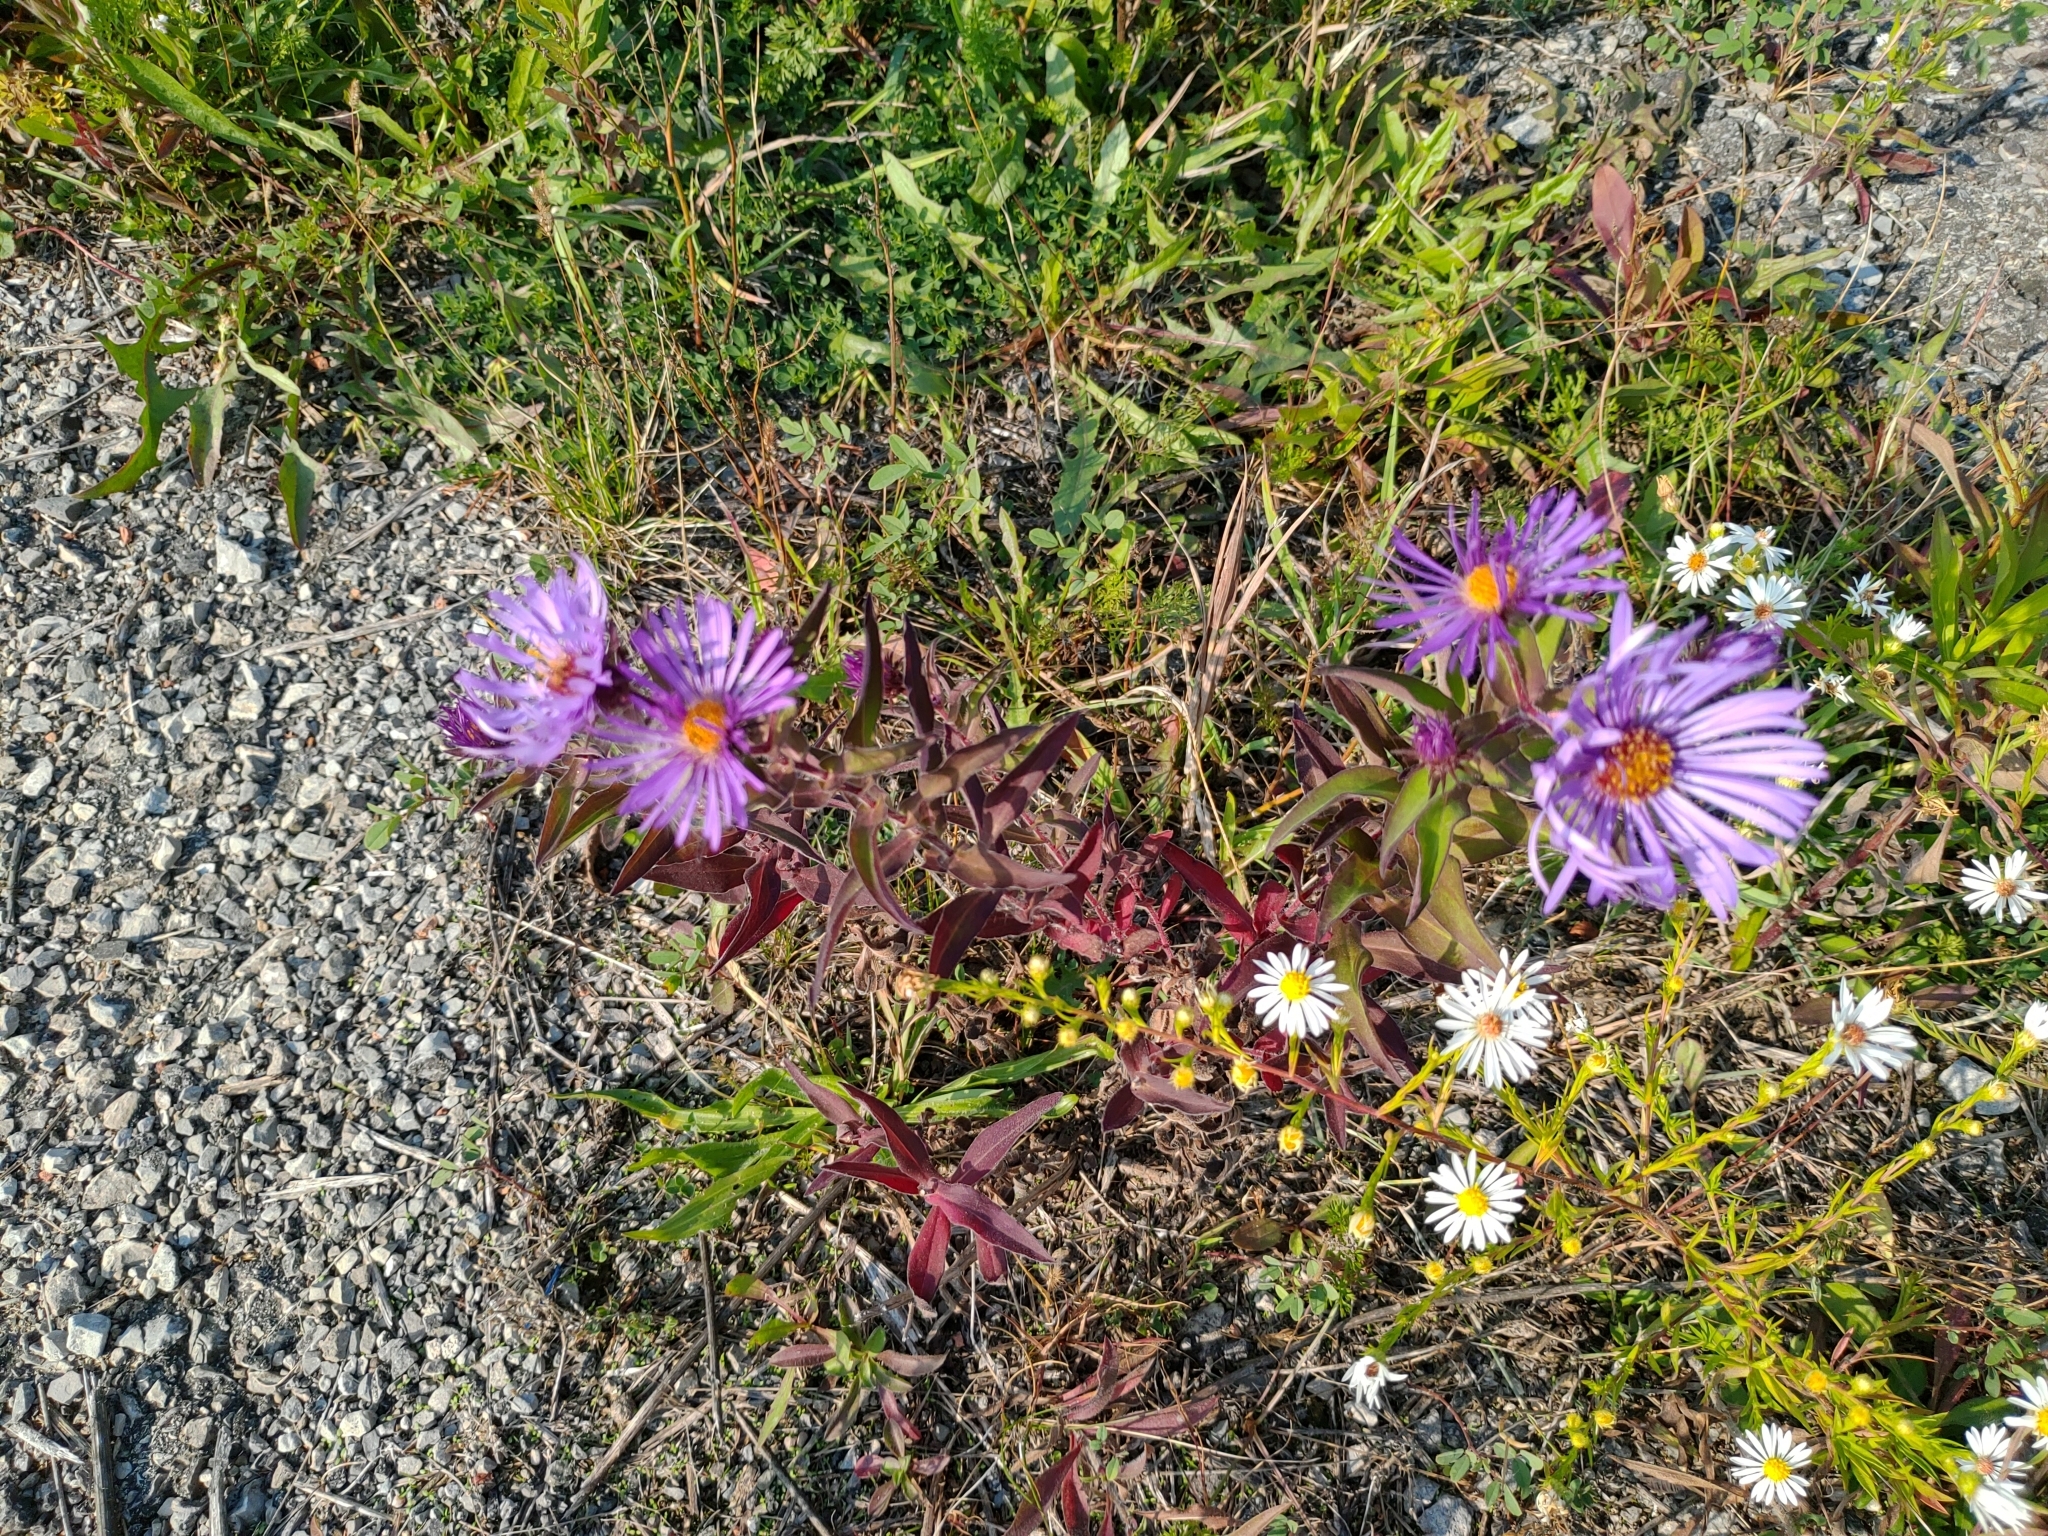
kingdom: Plantae
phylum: Tracheophyta
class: Magnoliopsida
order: Asterales
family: Asteraceae
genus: Symphyotrichum
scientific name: Symphyotrichum novae-angliae
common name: Michaelmas daisy
